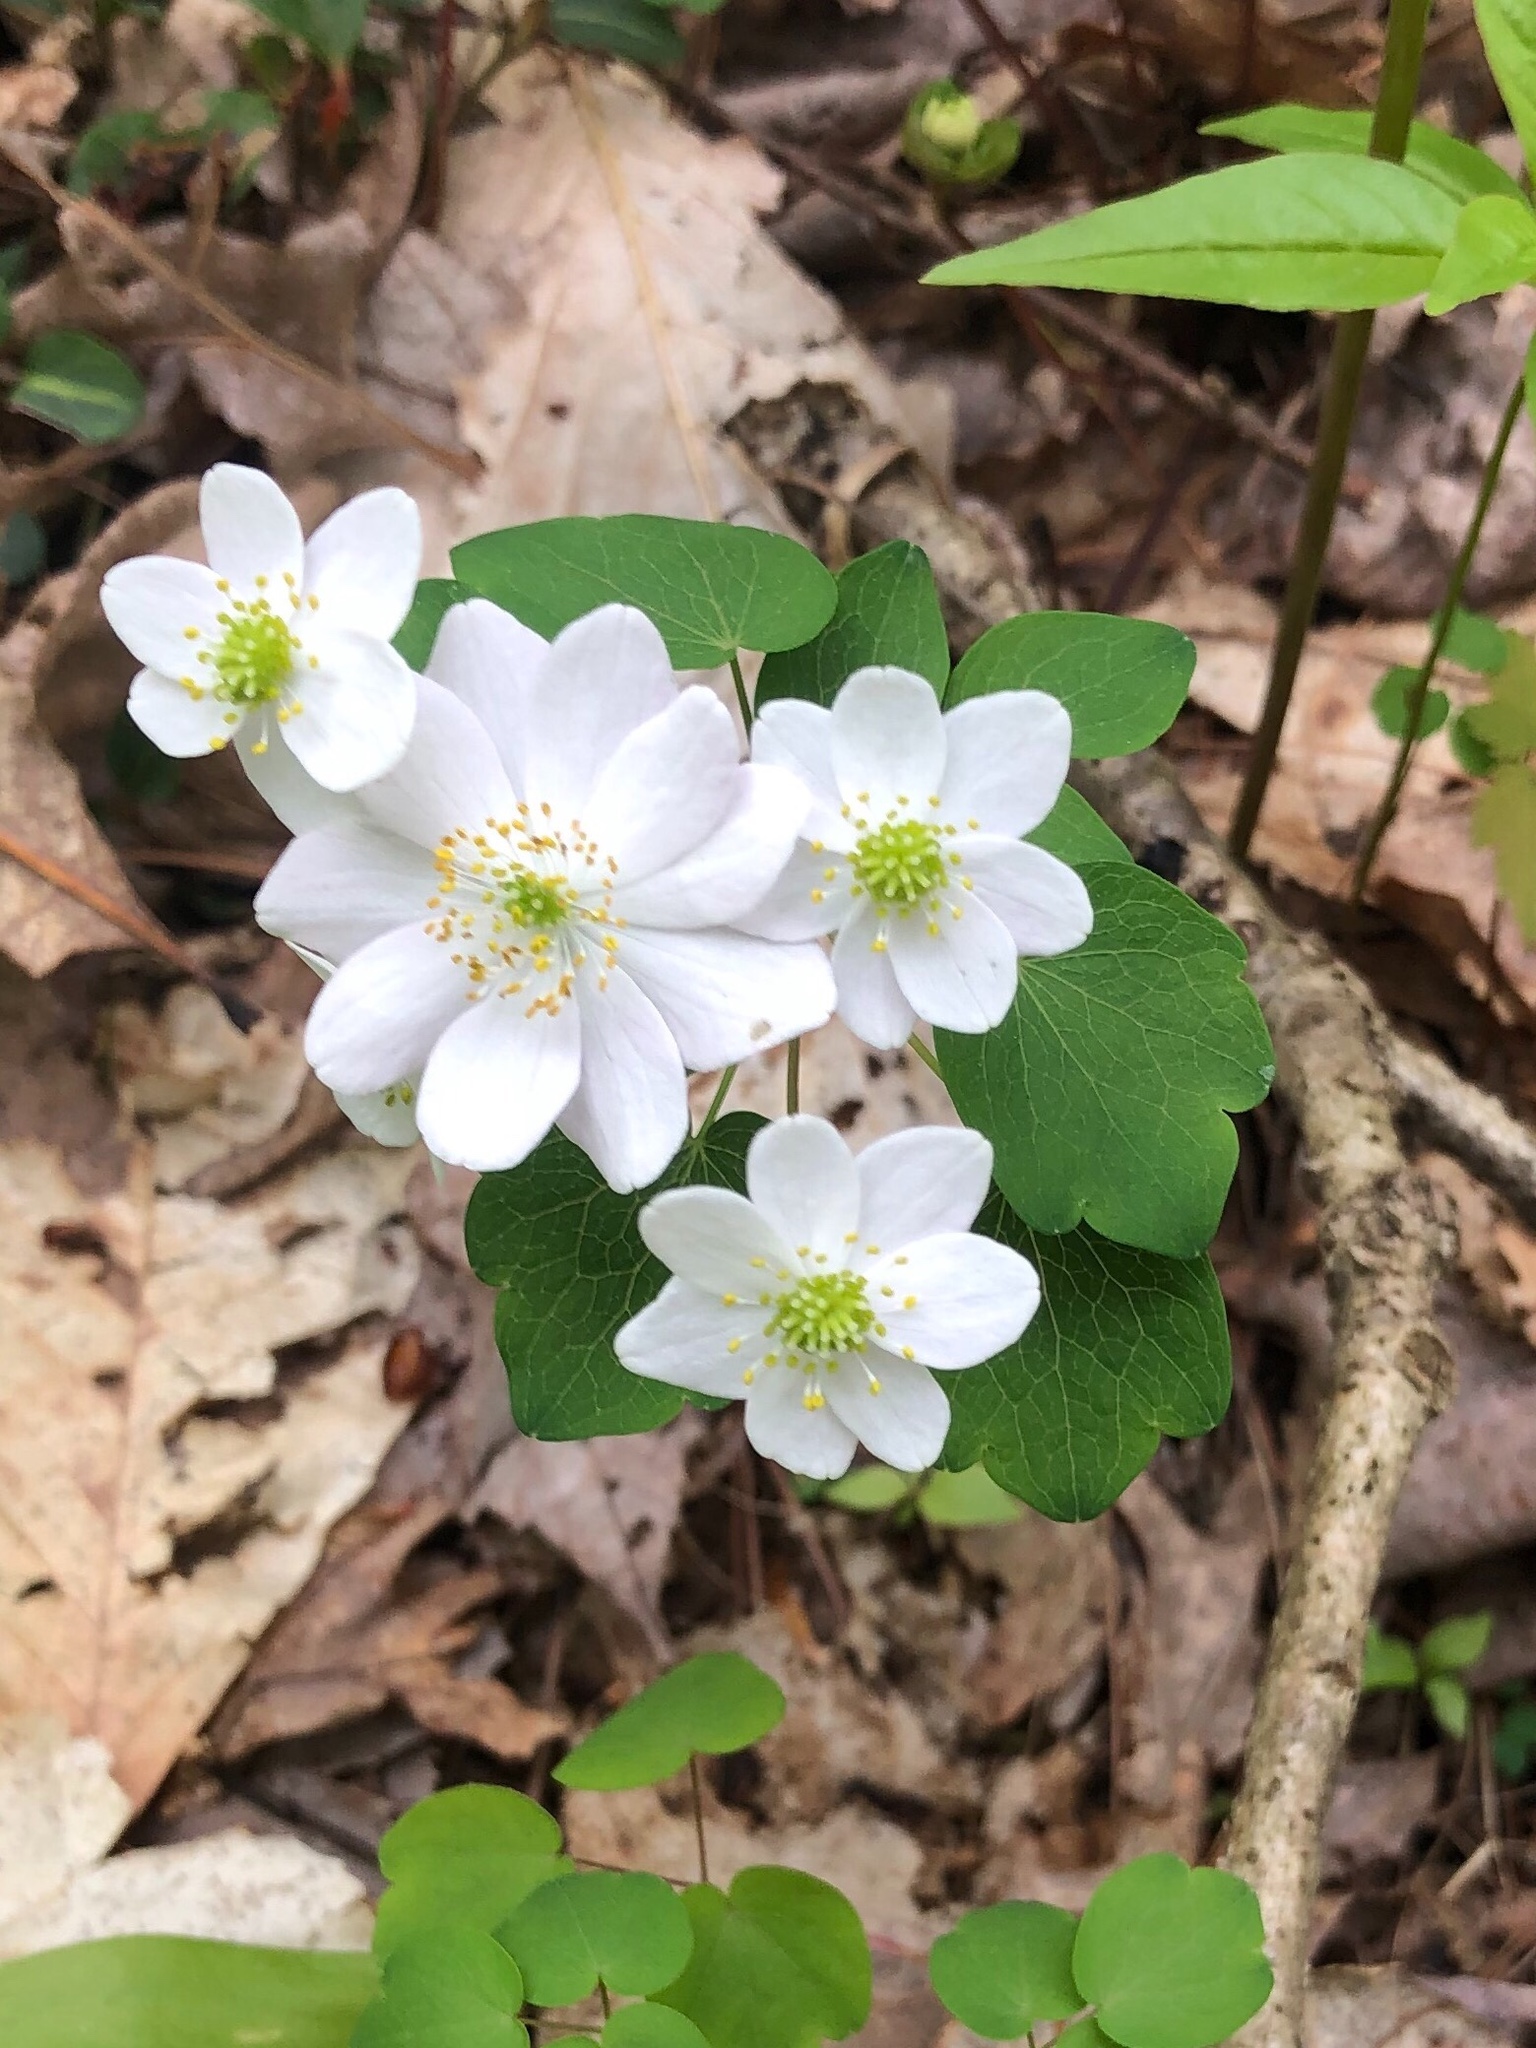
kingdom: Plantae
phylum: Tracheophyta
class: Magnoliopsida
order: Ranunculales
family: Ranunculaceae
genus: Thalictrum
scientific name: Thalictrum thalictroides
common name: Rue-anemone
